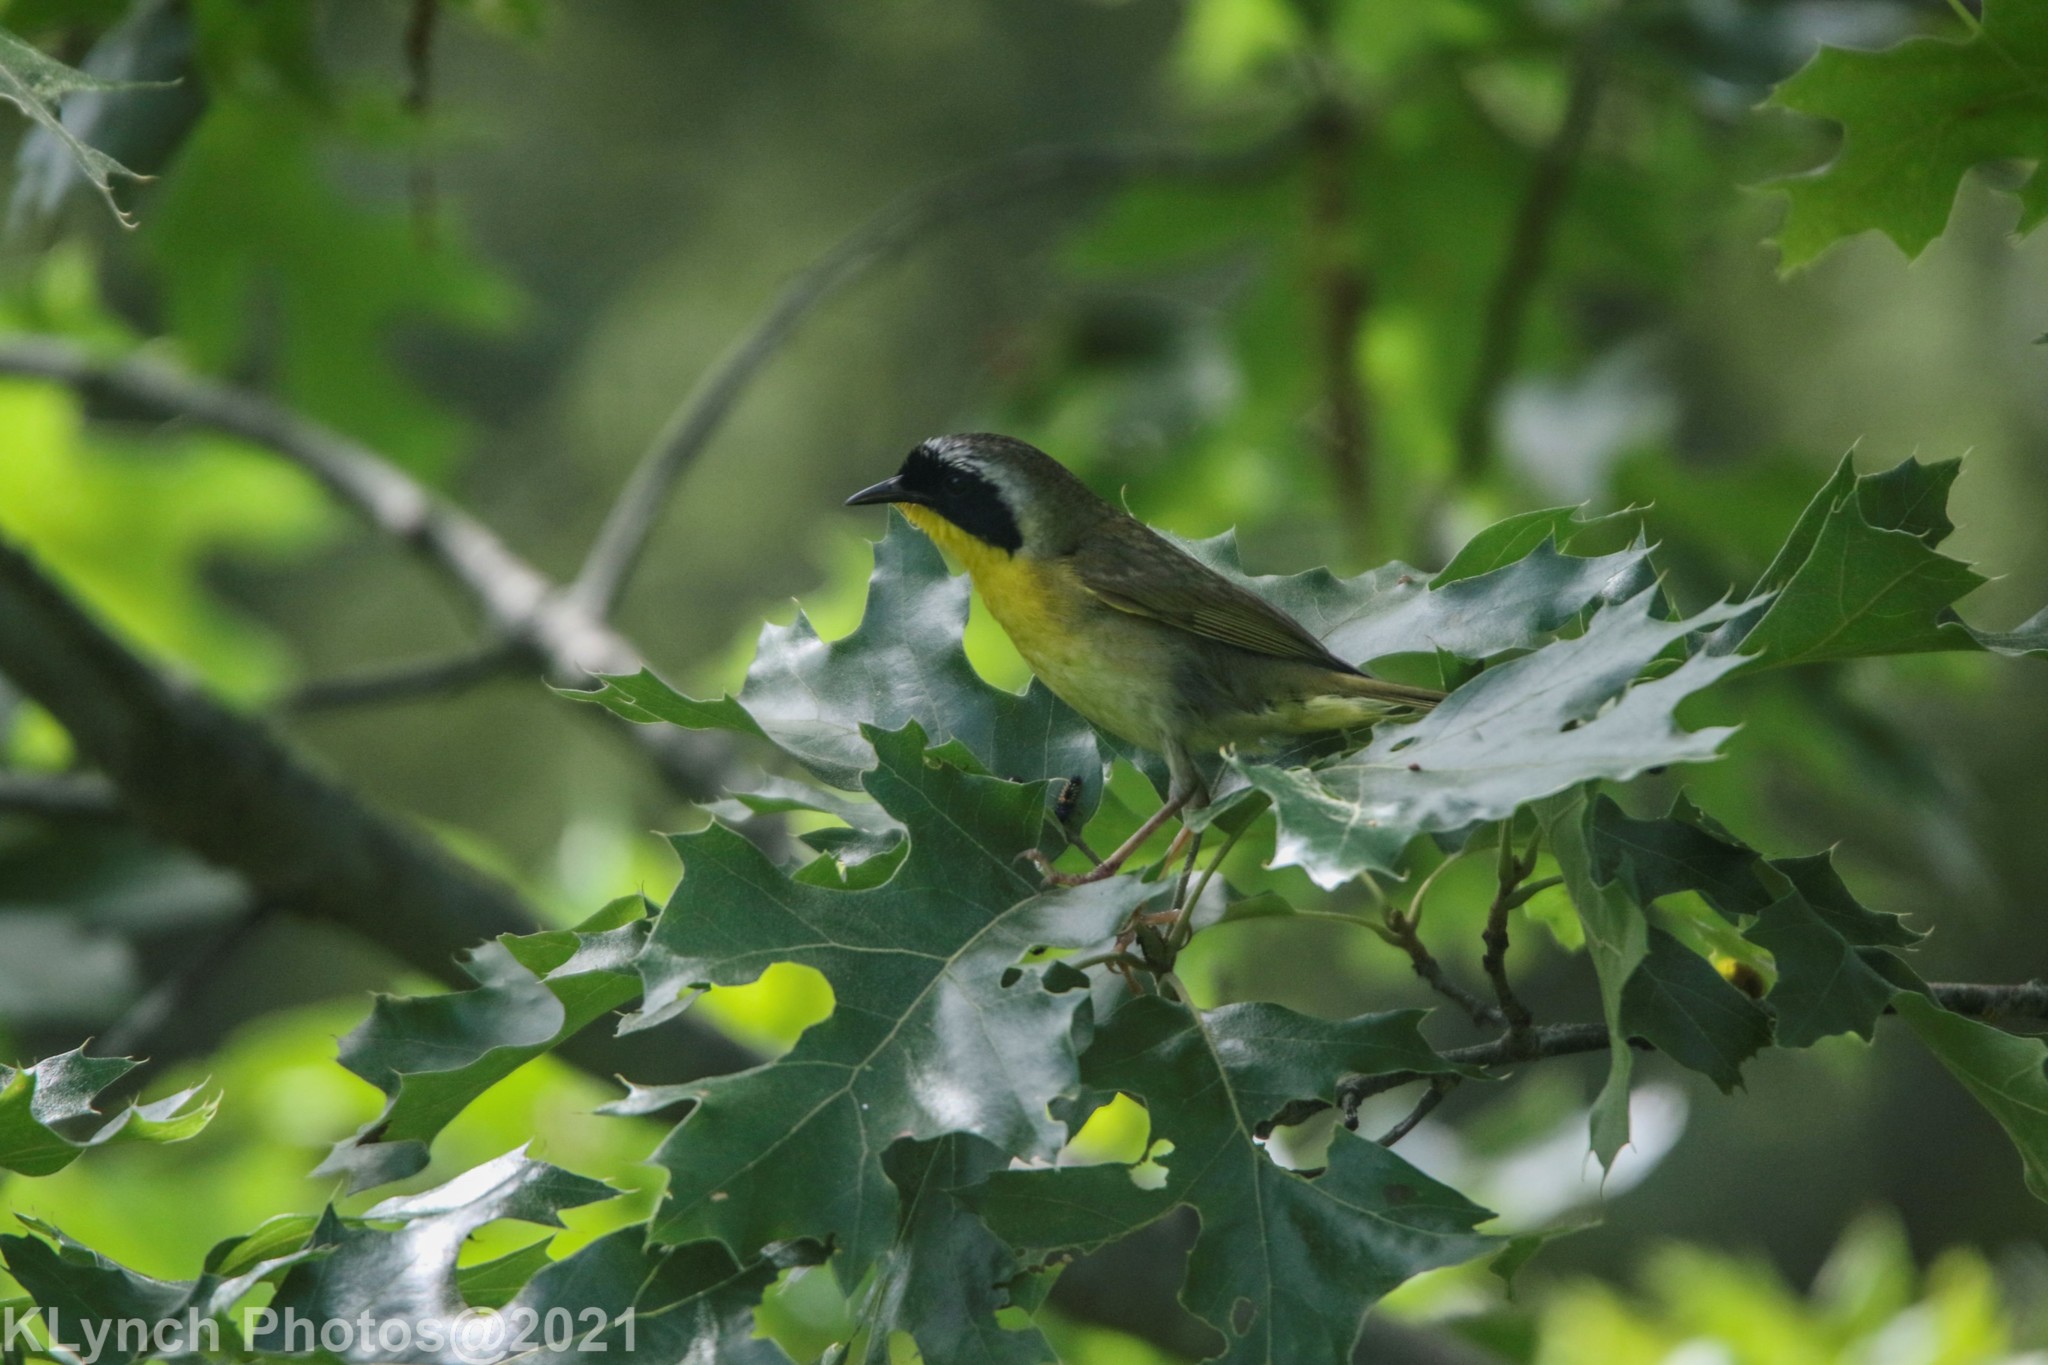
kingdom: Animalia
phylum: Chordata
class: Aves
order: Passeriformes
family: Parulidae
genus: Geothlypis
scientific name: Geothlypis trichas
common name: Common yellowthroat
